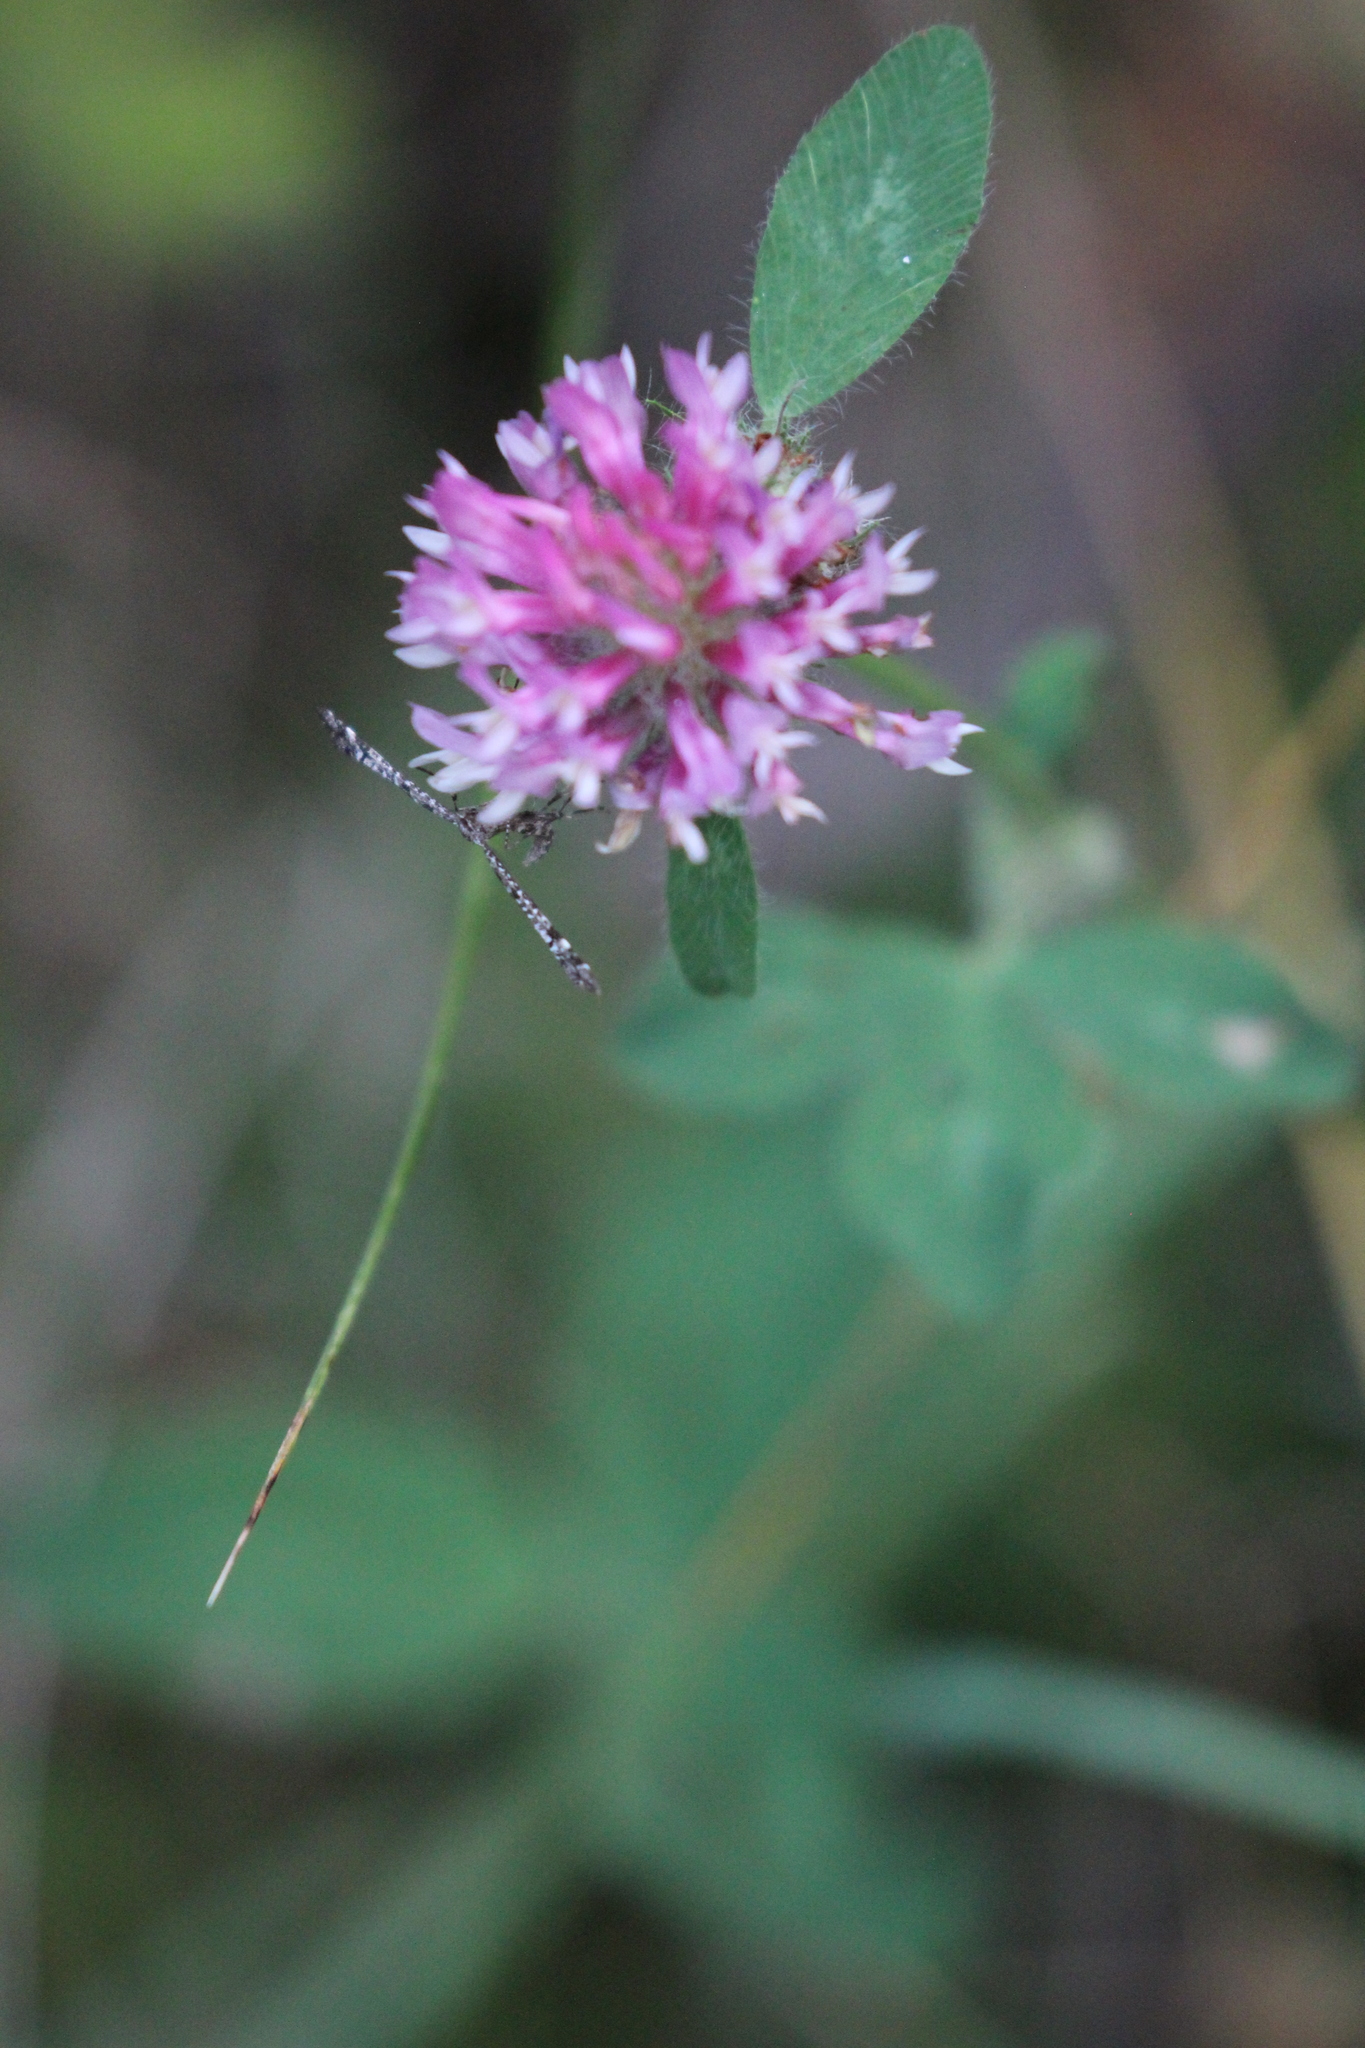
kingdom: Plantae
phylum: Tracheophyta
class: Magnoliopsida
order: Fabales
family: Fabaceae
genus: Trifolium
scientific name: Trifolium pratense
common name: Red clover
